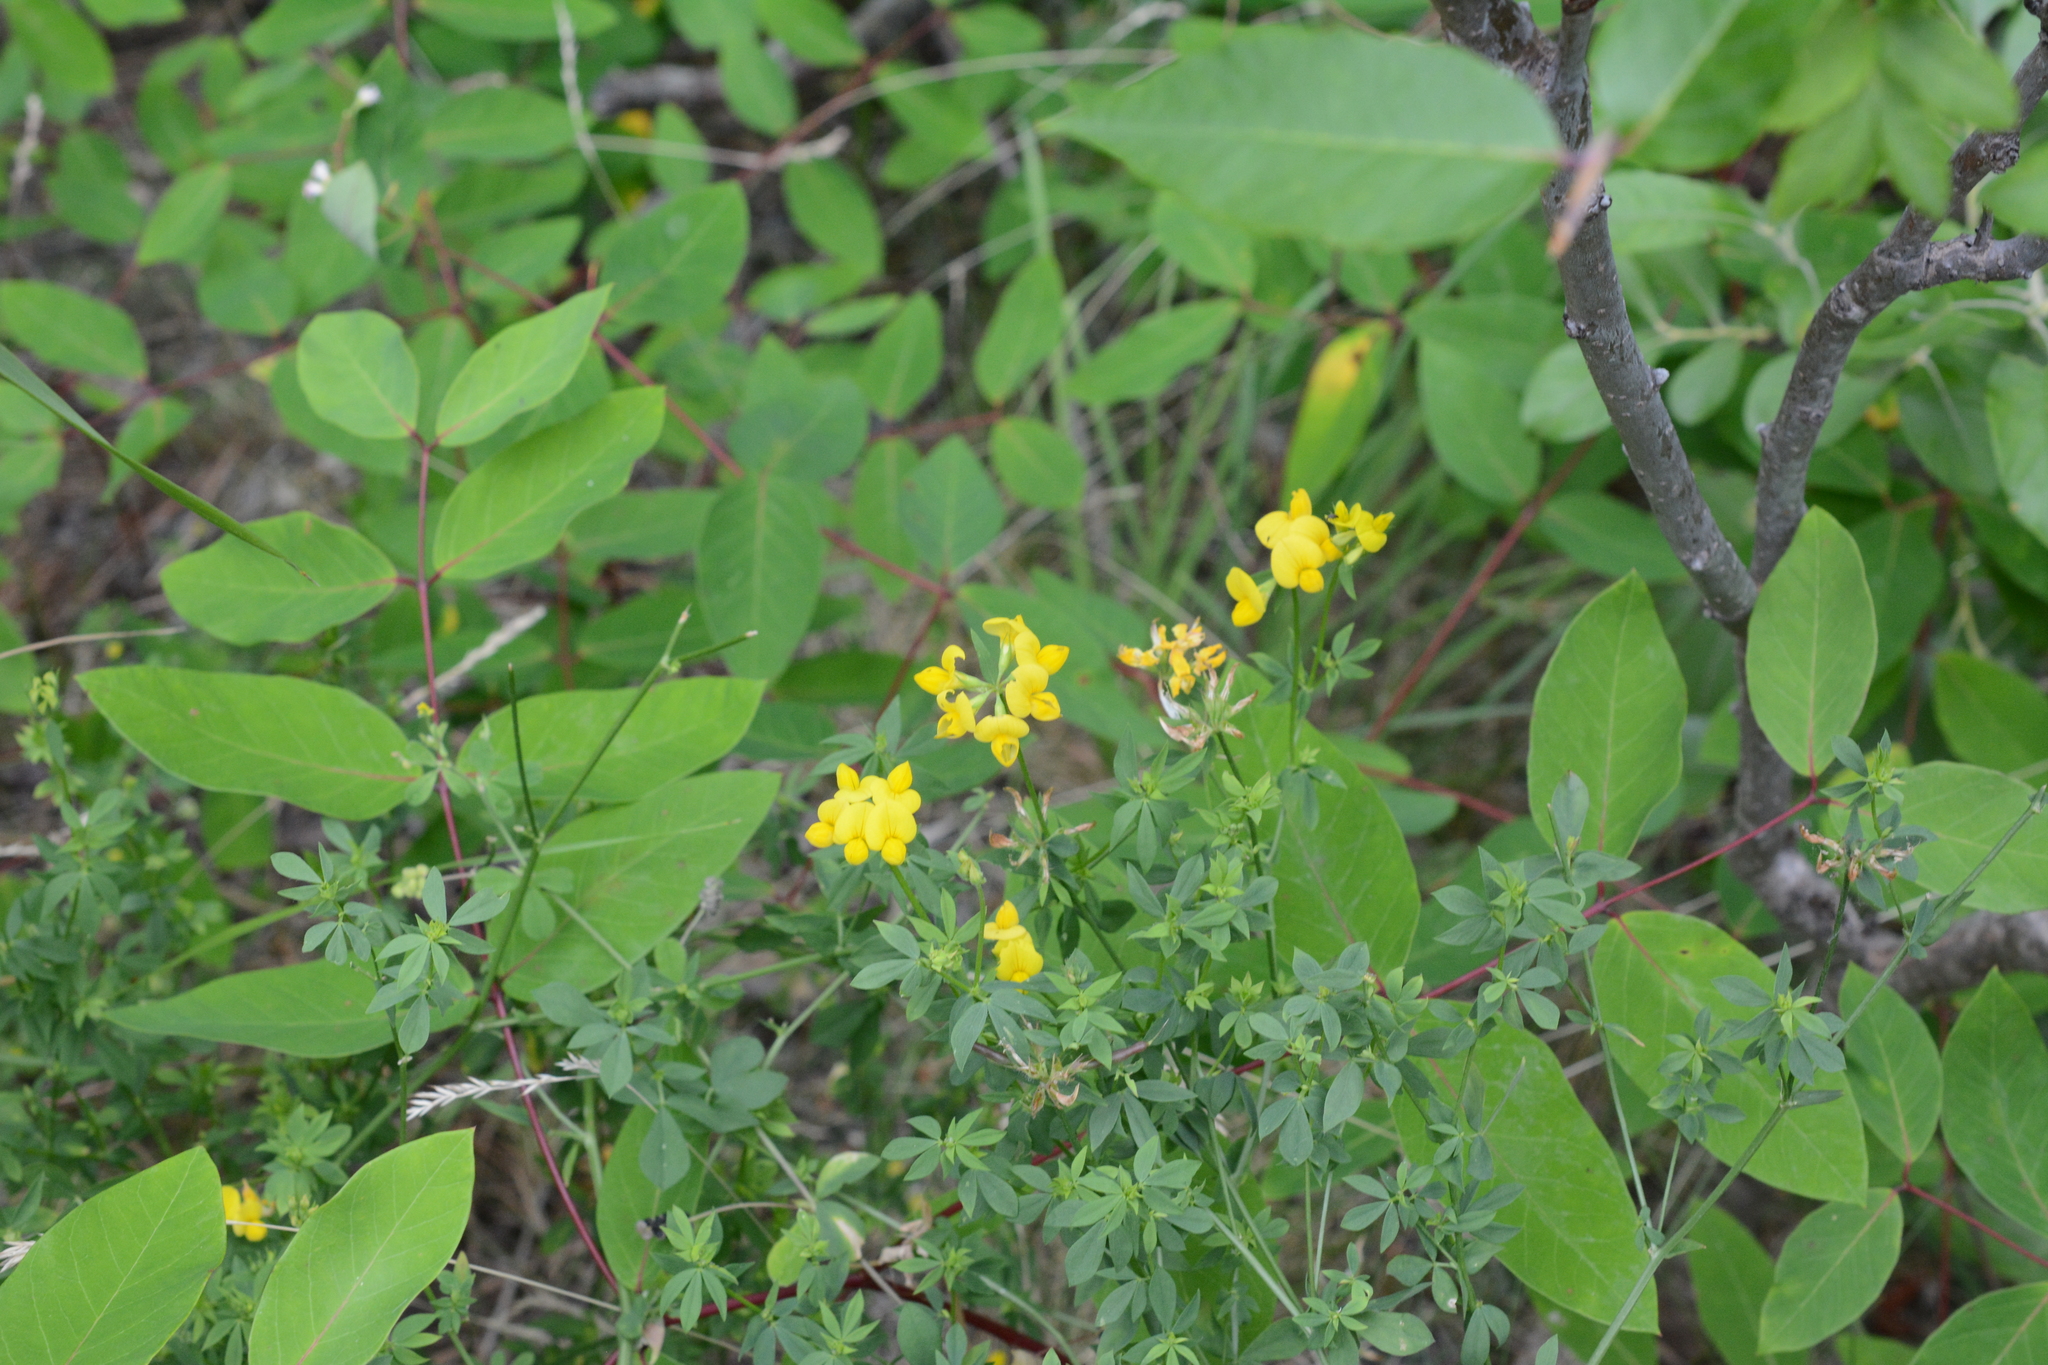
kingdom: Plantae
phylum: Tracheophyta
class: Magnoliopsida
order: Fabales
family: Fabaceae
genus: Lotus
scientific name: Lotus corniculatus
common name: Common bird's-foot-trefoil
